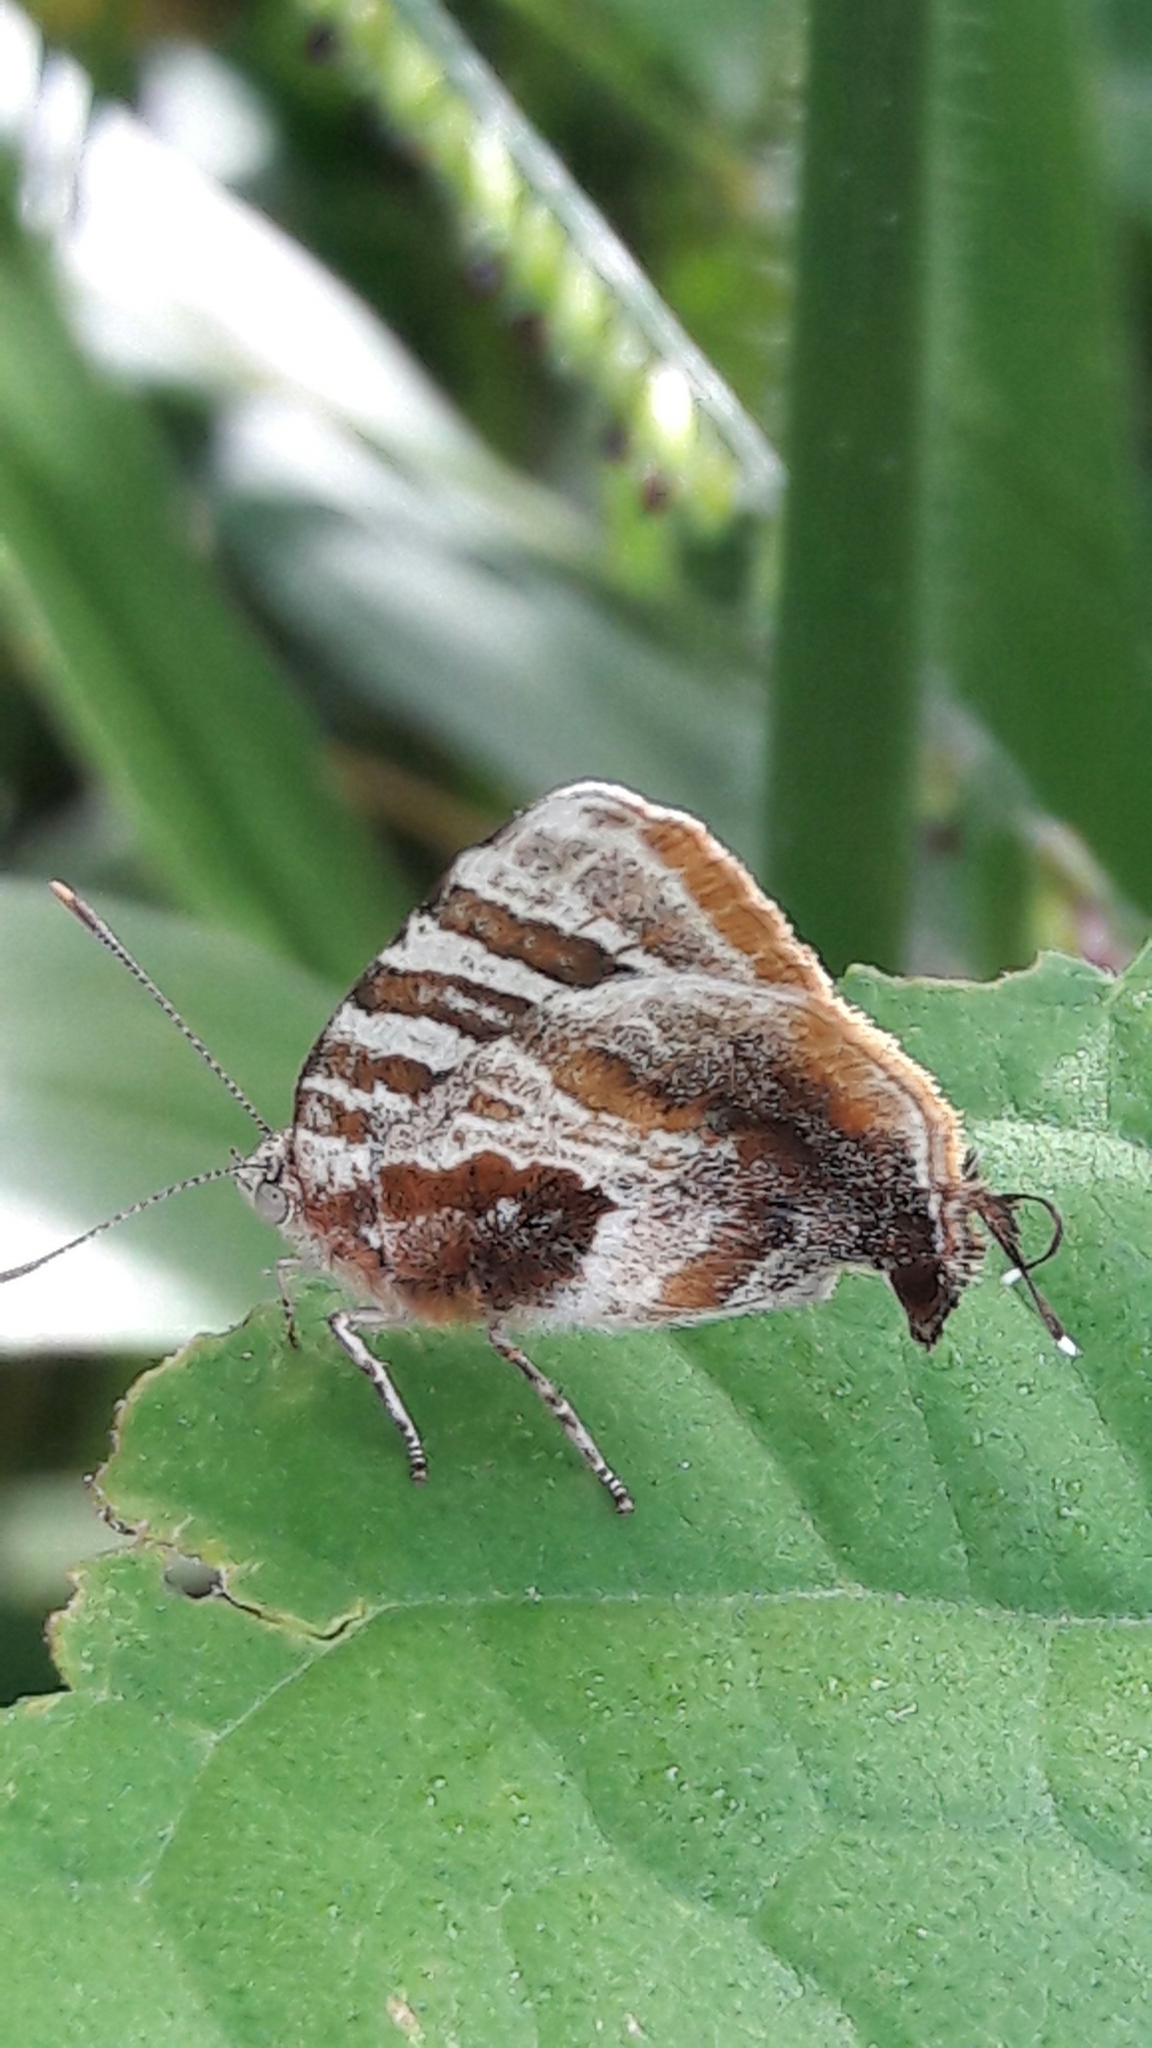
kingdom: Animalia
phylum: Arthropoda
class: Insecta
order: Lepidoptera
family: Lycaenidae
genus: Arawacus
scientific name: Arawacus ellida
